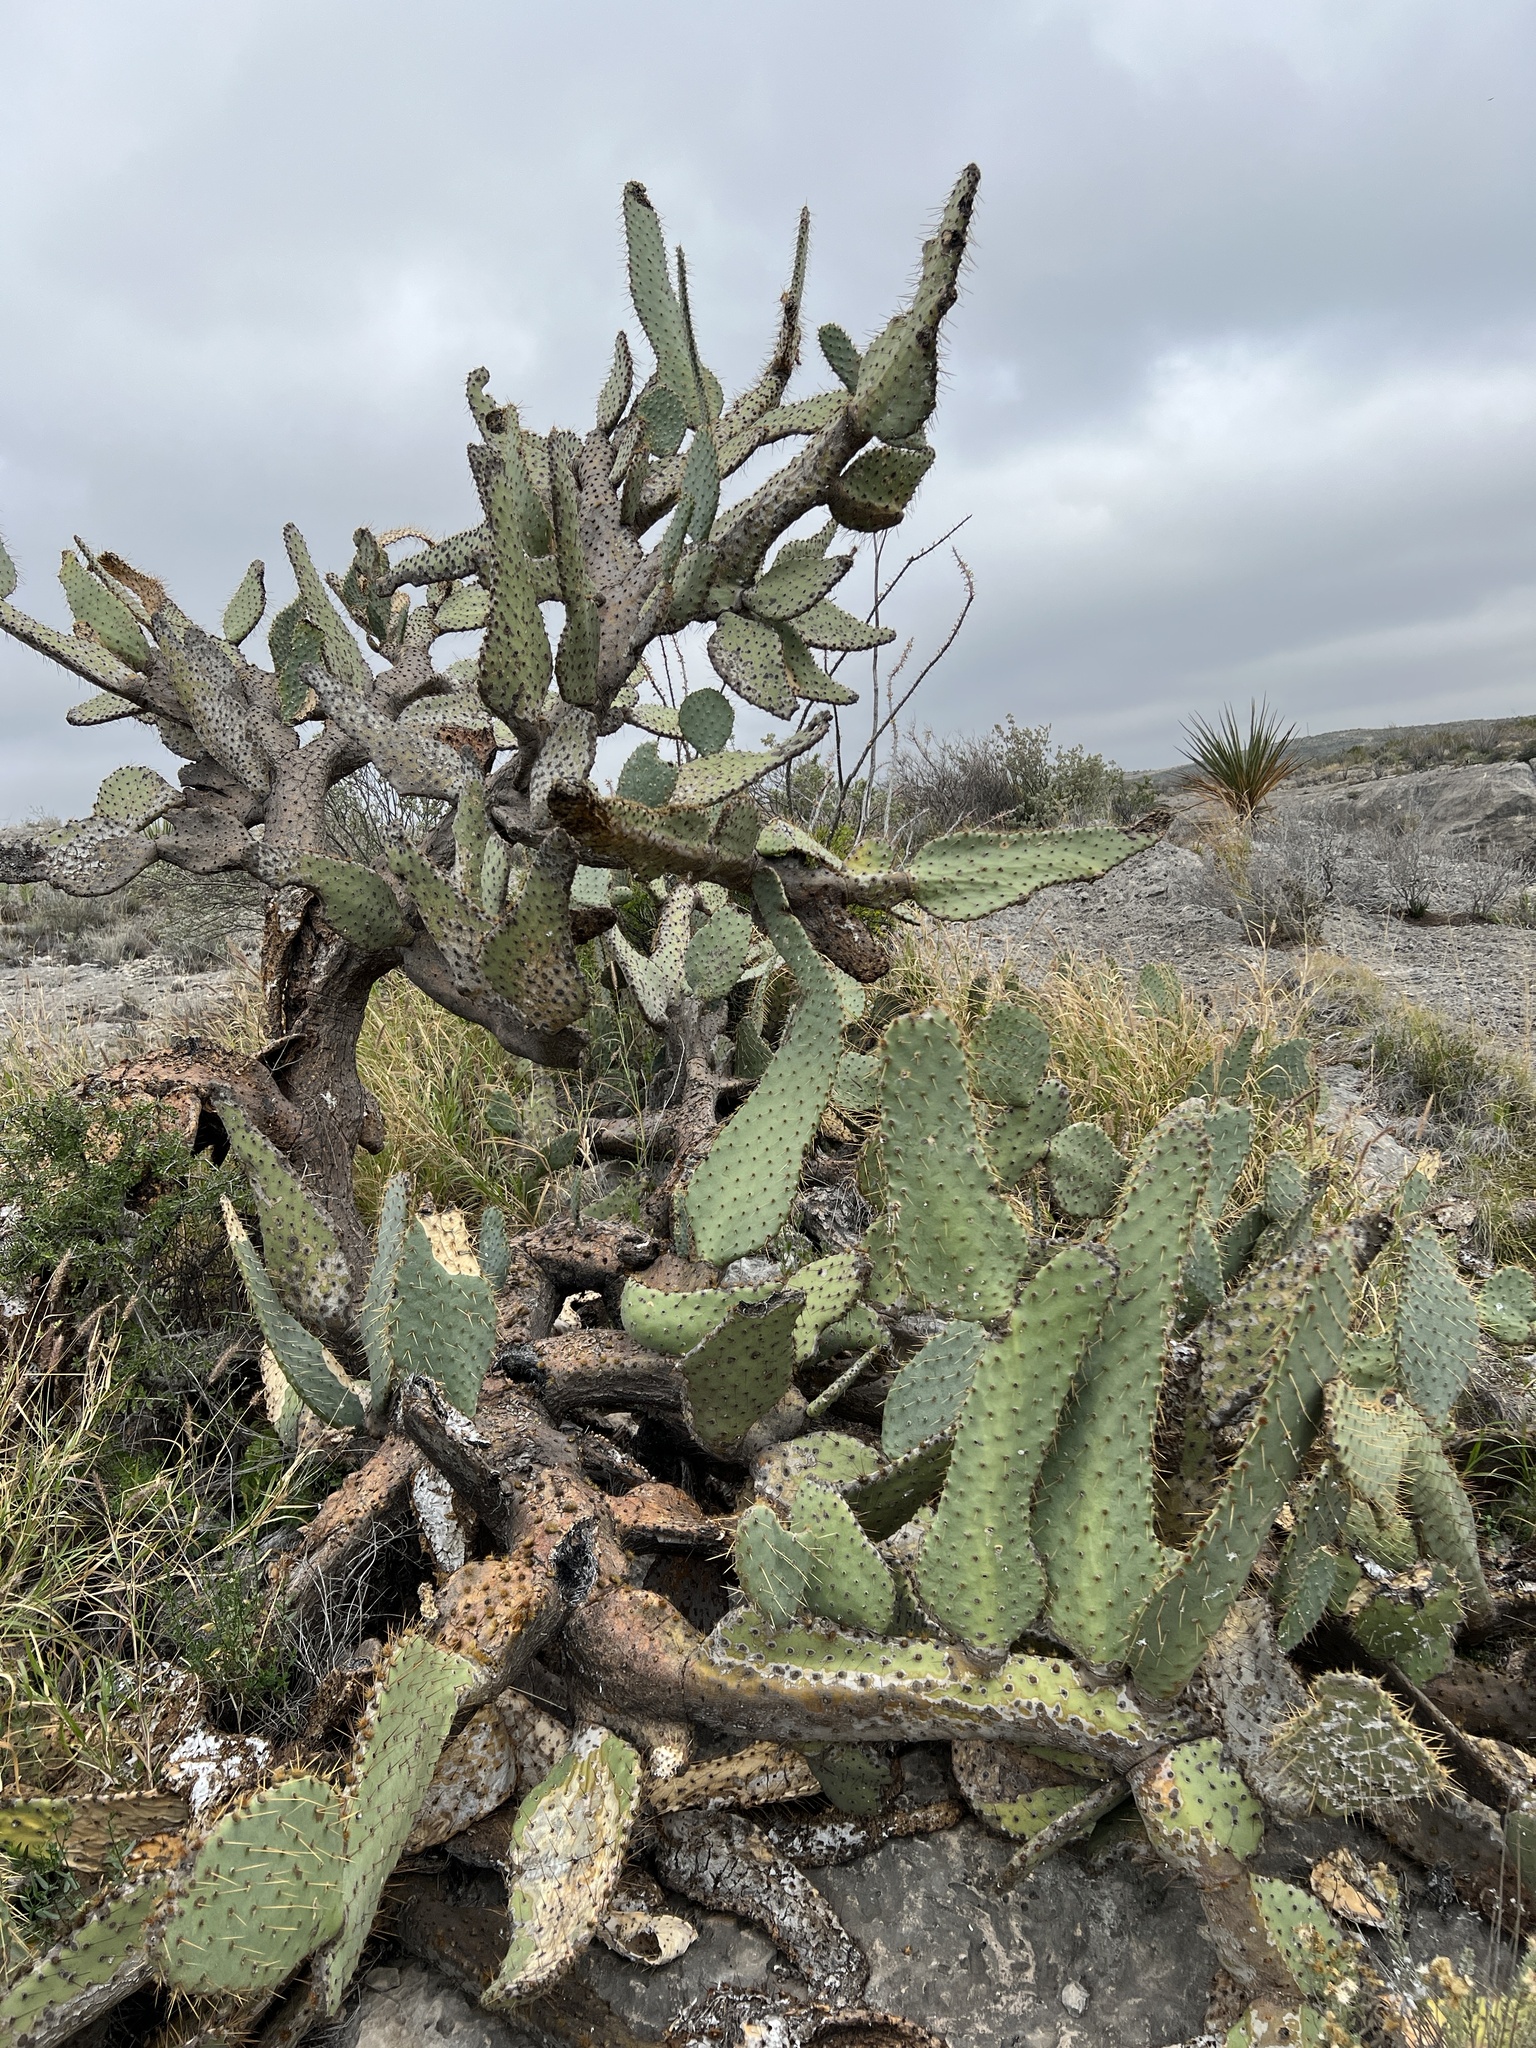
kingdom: Plantae
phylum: Tracheophyta
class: Magnoliopsida
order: Caryophyllales
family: Cactaceae
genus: Opuntia
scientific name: Opuntia engelmannii
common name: Cactus-apple
